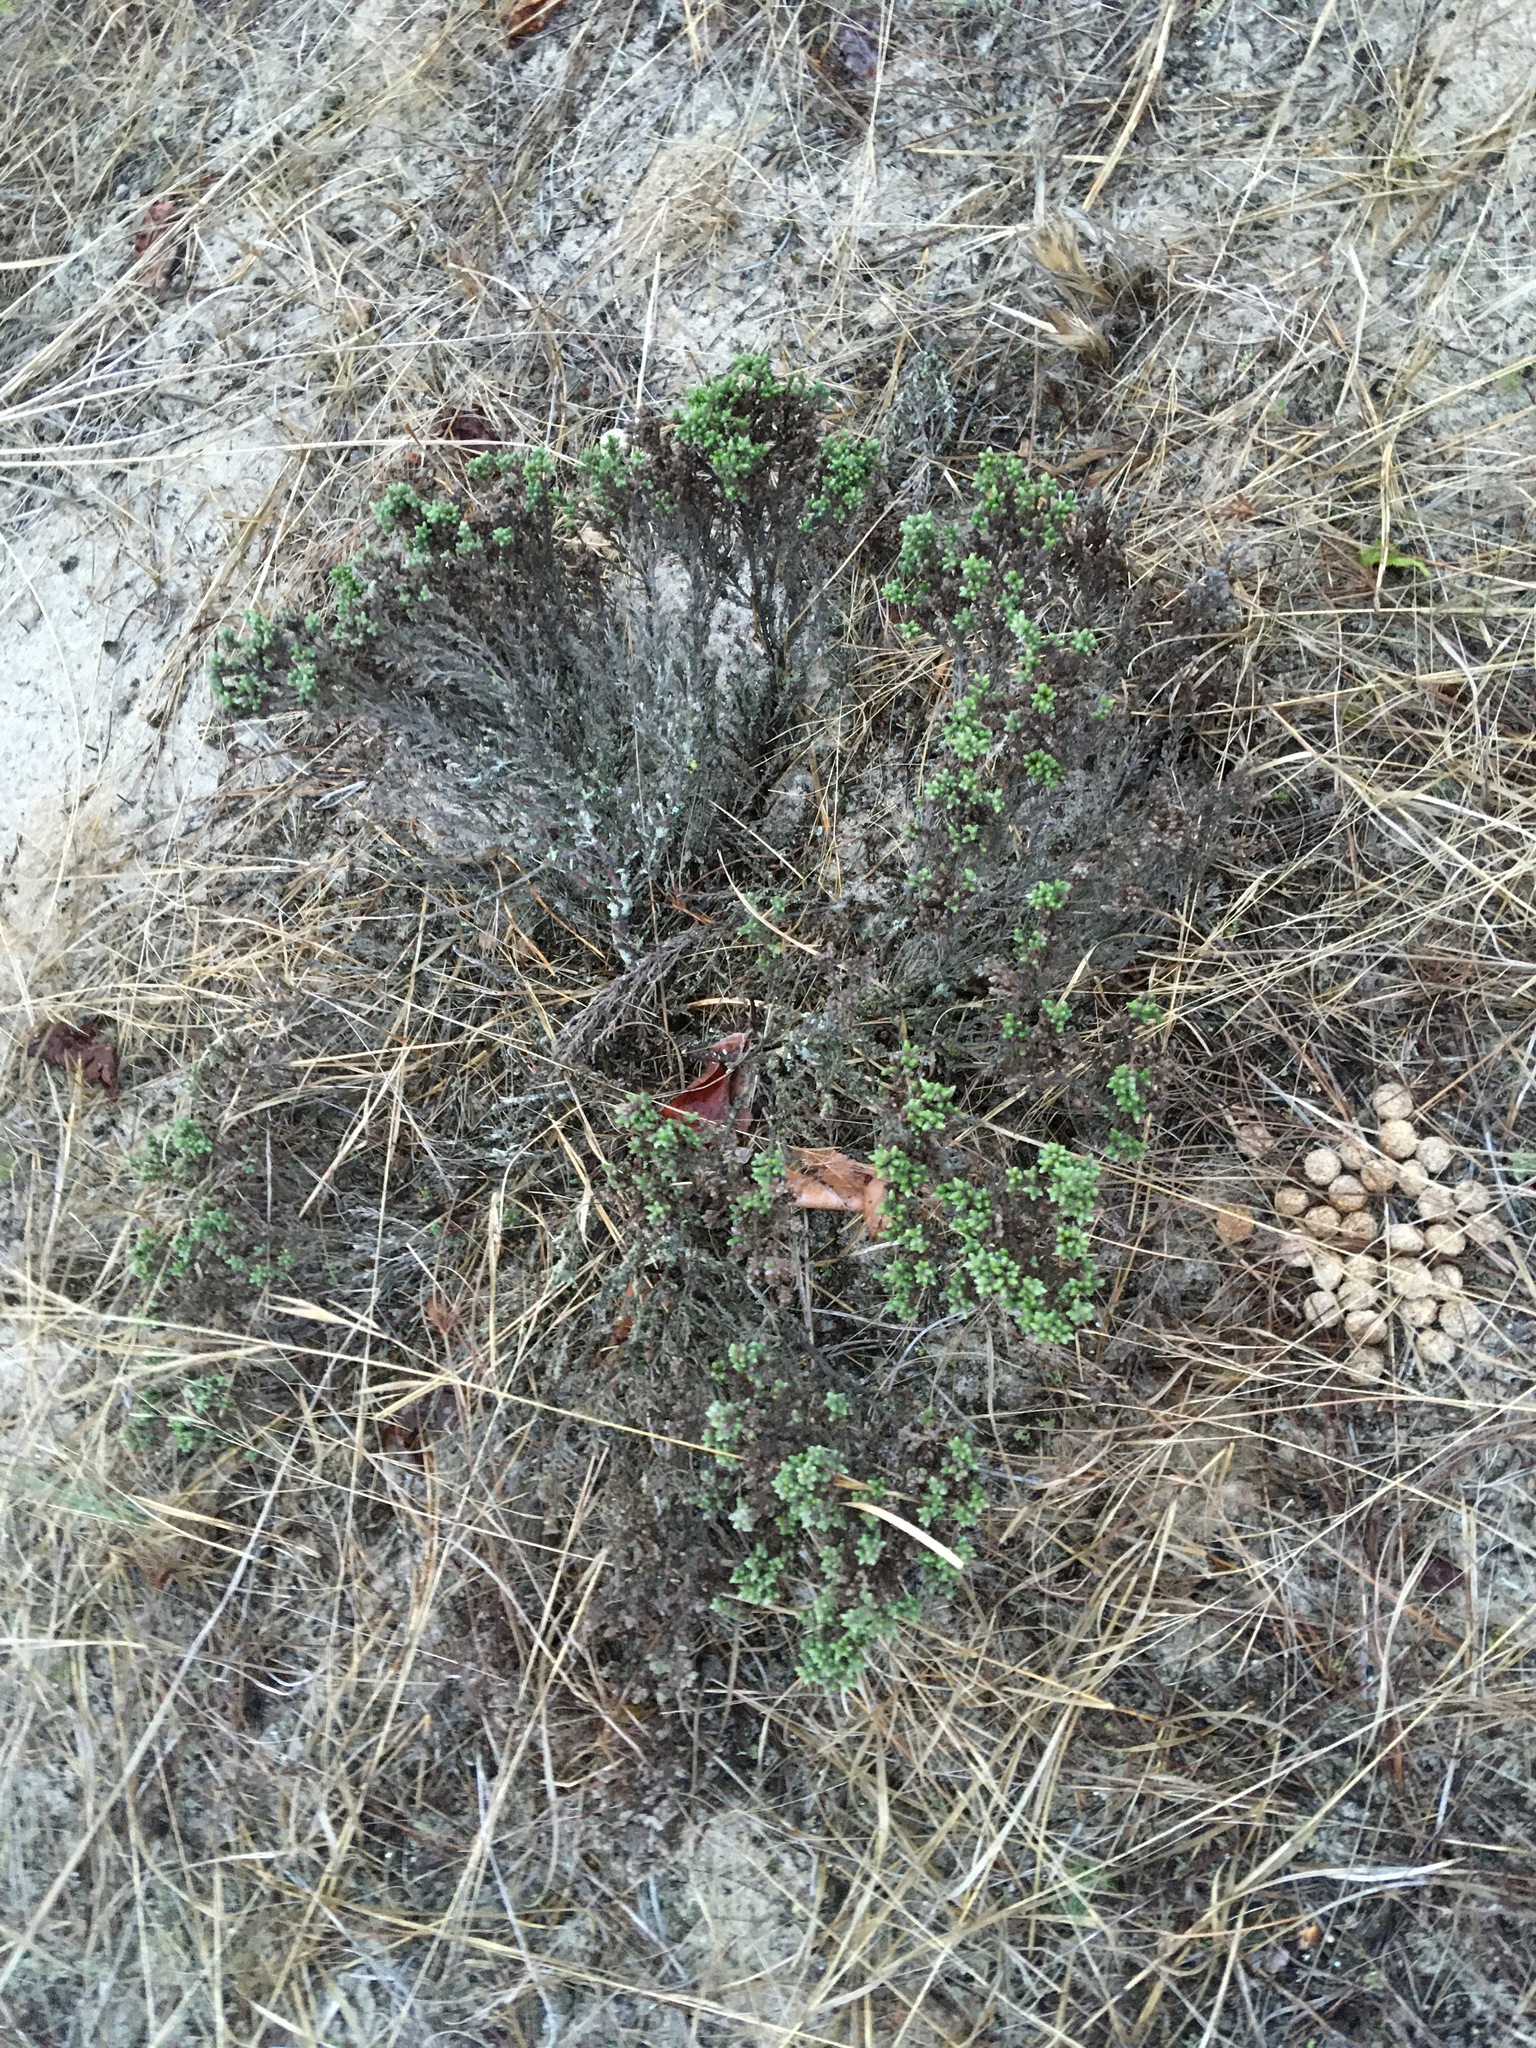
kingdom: Plantae
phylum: Tracheophyta
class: Magnoliopsida
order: Malvales
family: Cistaceae
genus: Hudsonia
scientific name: Hudsonia tomentosa
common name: Beach-heath
